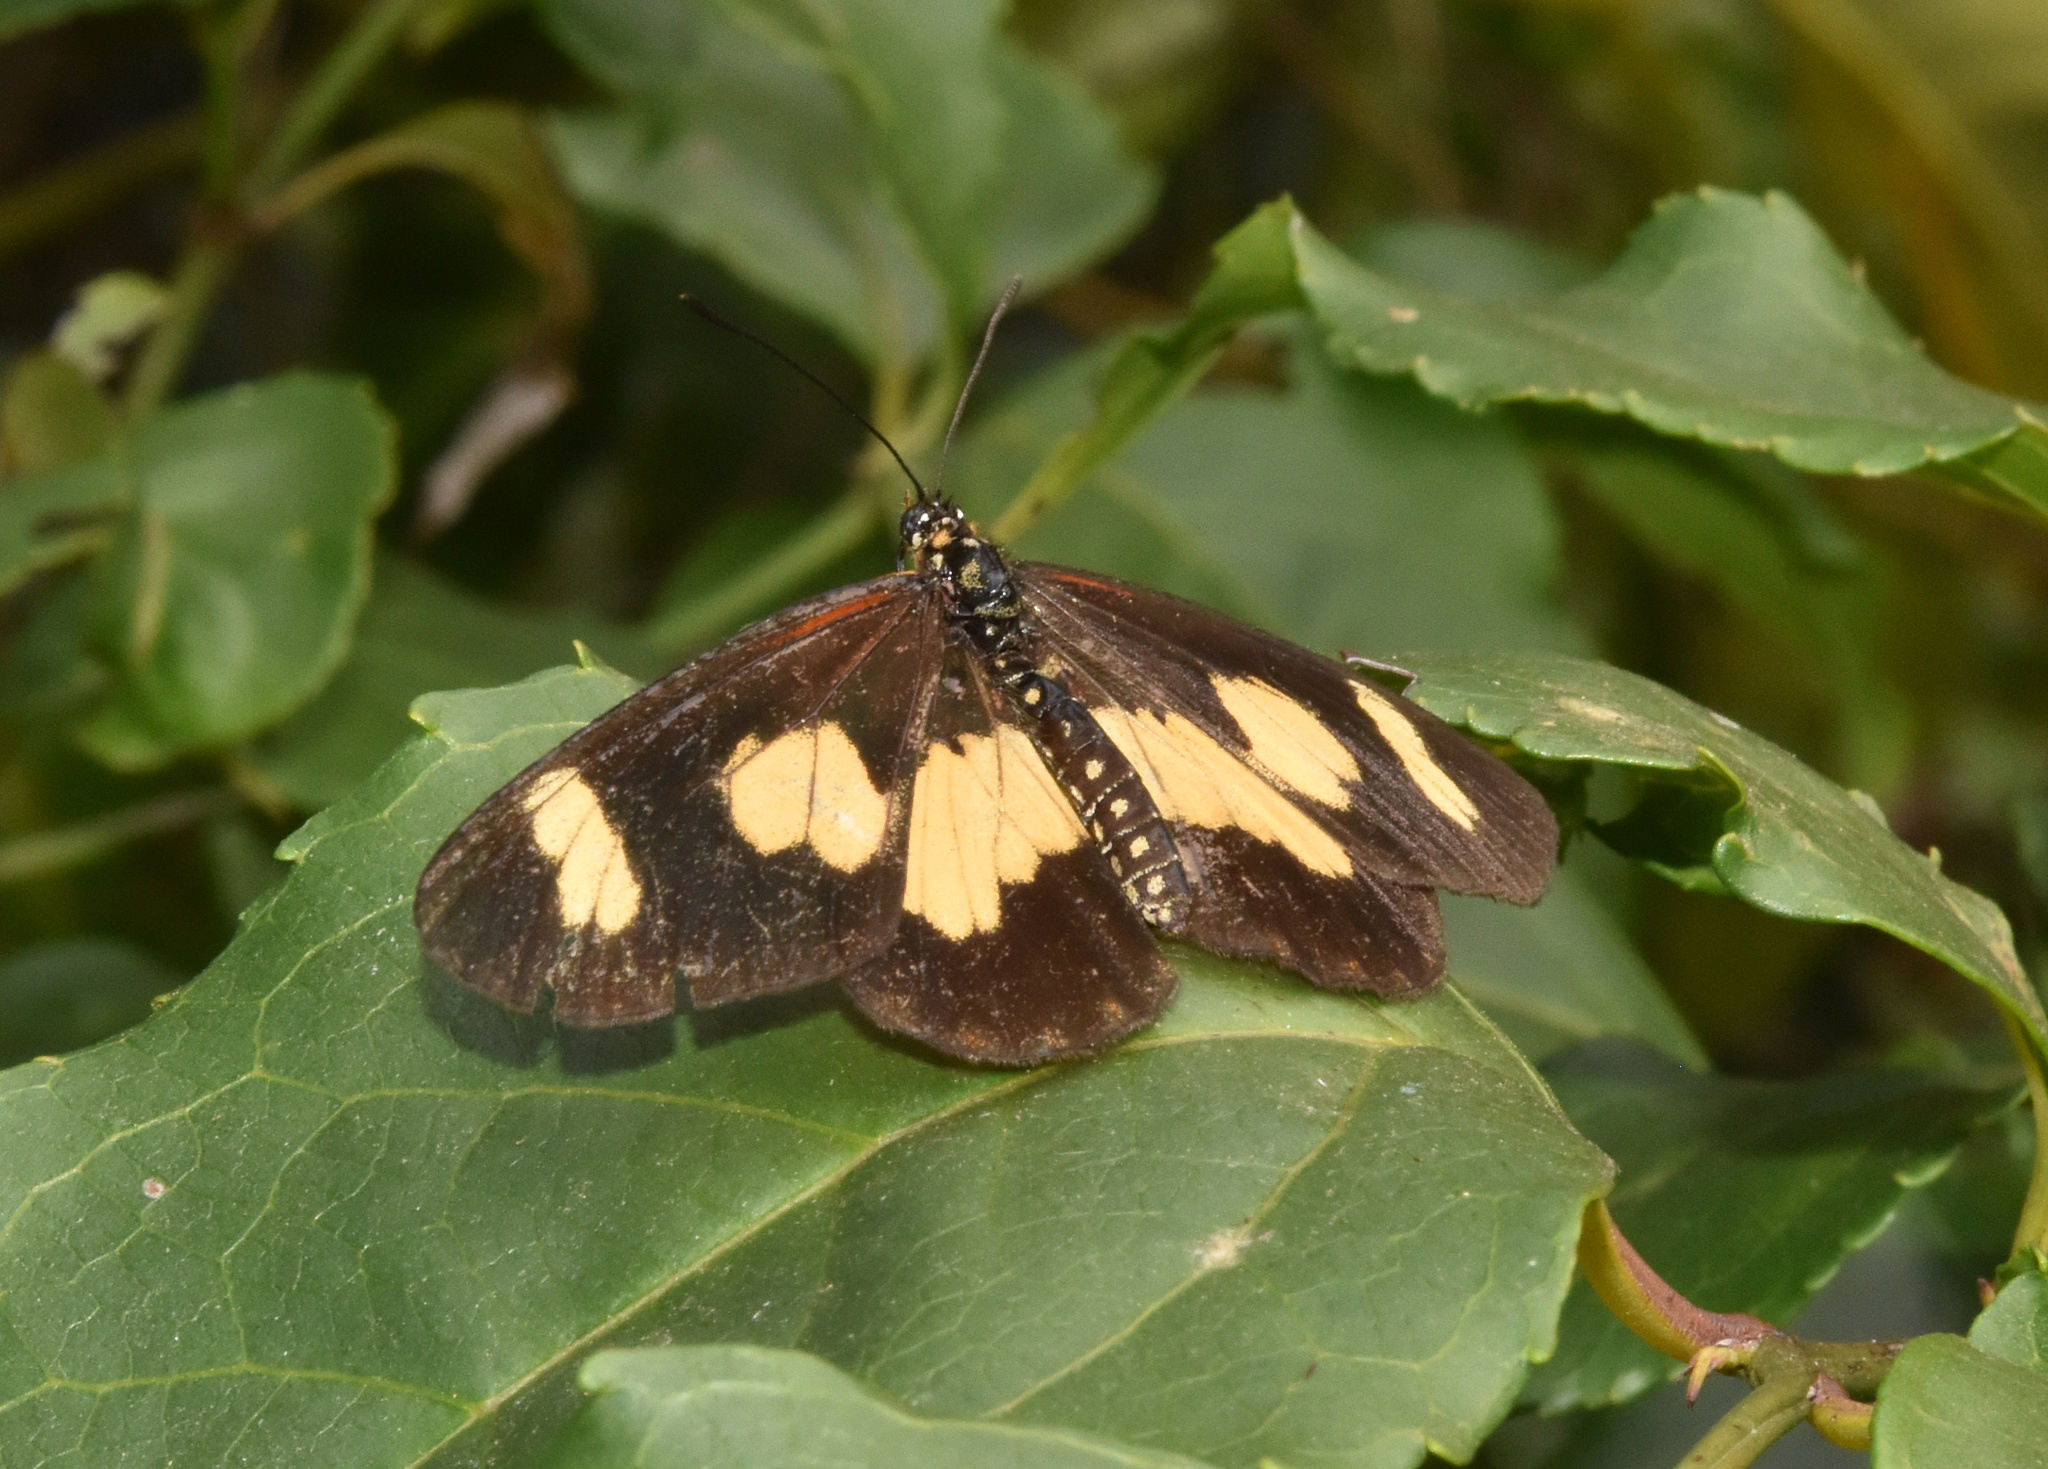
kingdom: Animalia
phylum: Arthropoda
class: Insecta
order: Lepidoptera
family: Nymphalidae
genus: Acraea
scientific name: Acraea cabira
